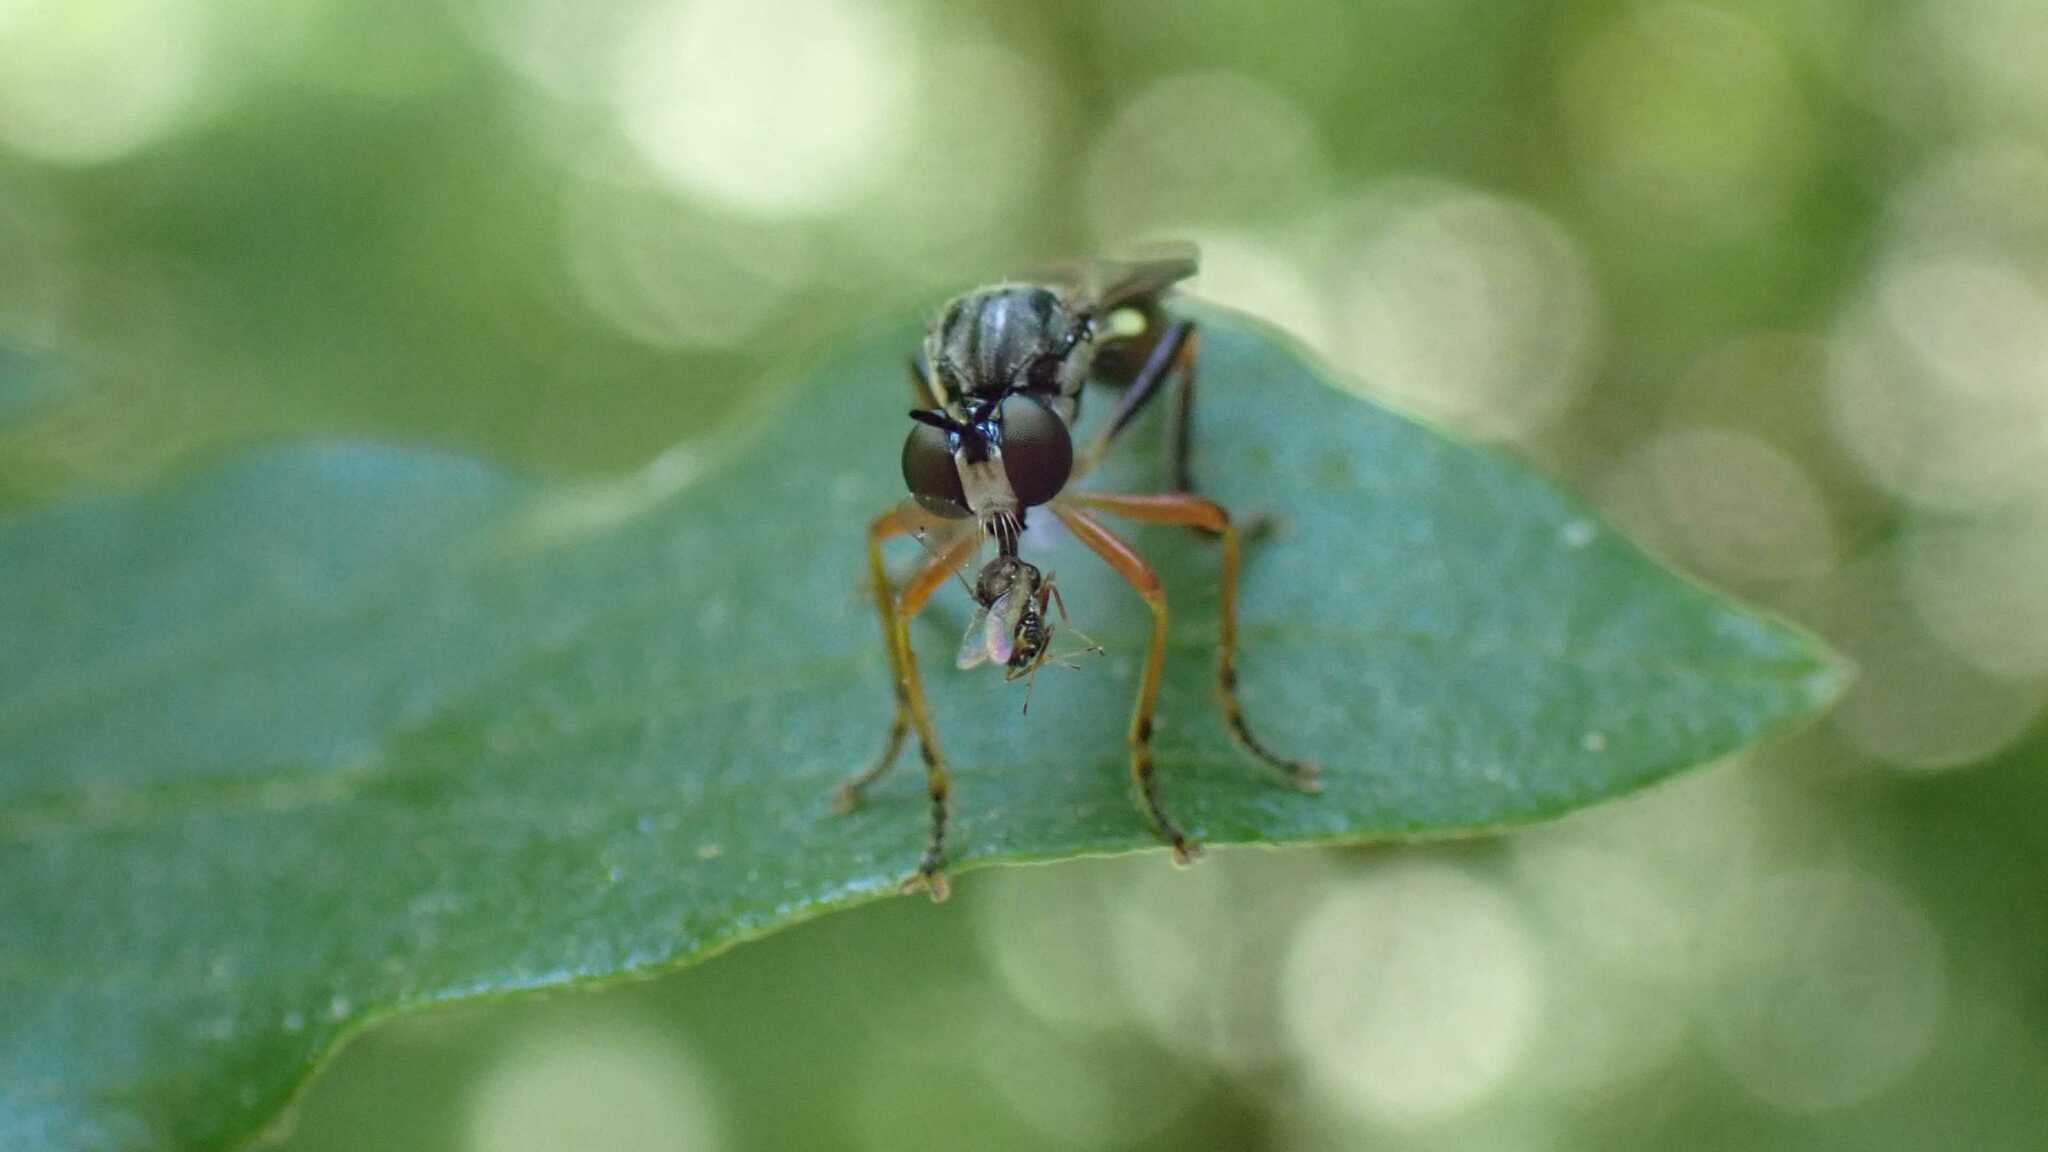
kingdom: Animalia
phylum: Arthropoda
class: Insecta
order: Diptera
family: Asilidae
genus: Dioctria
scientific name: Dioctria hyalipennis
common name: Stripe-legged robberfly
